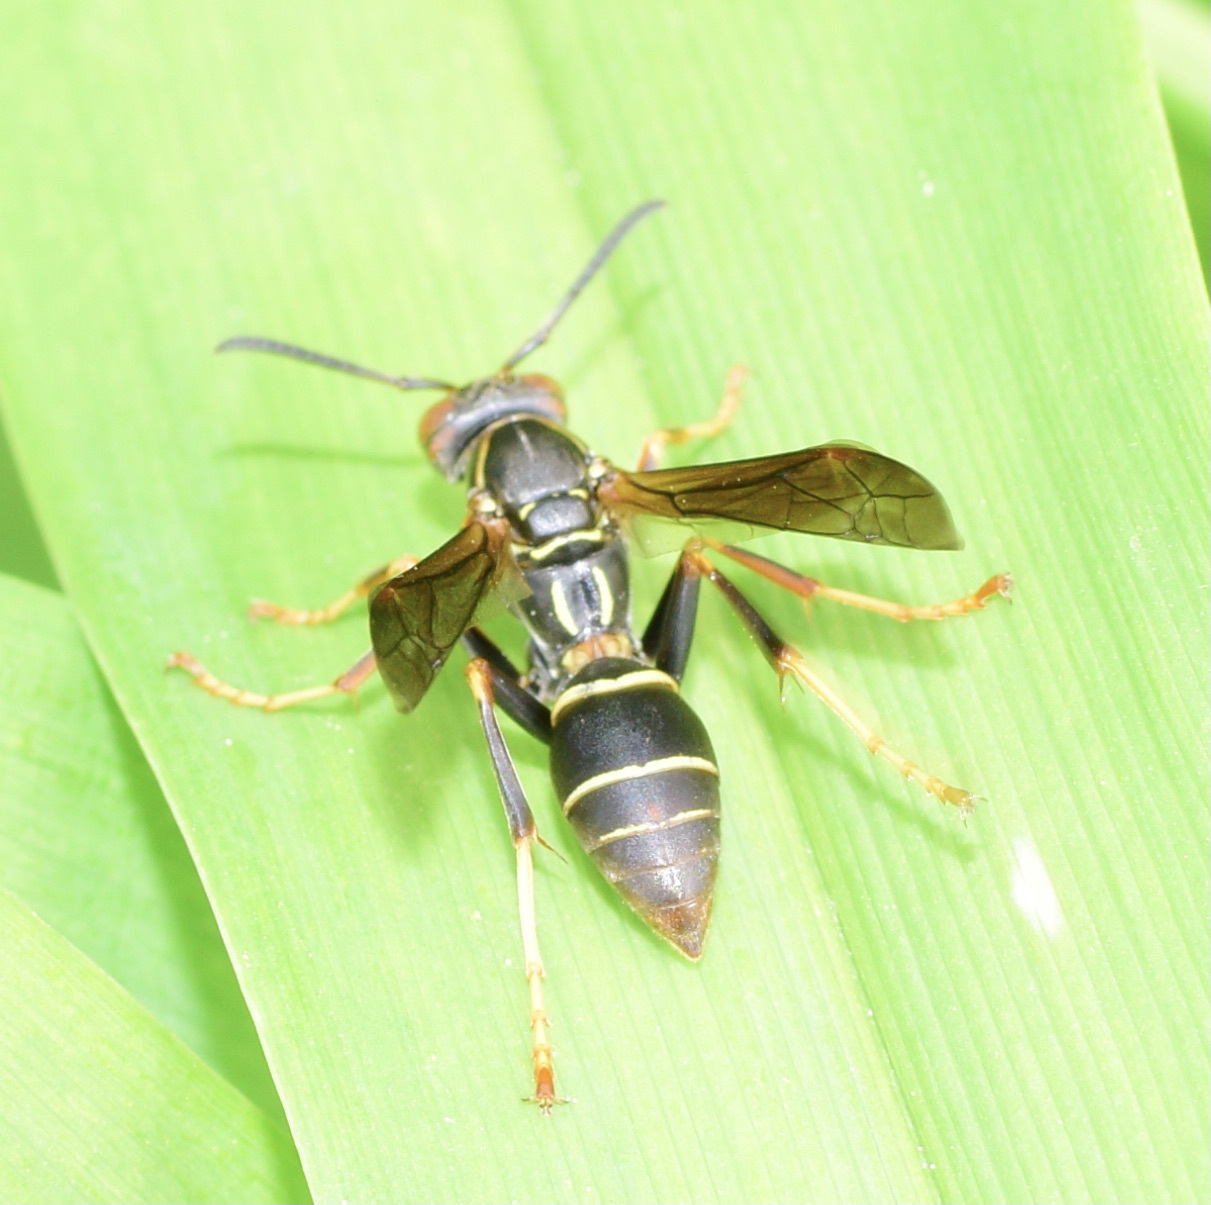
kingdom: Animalia
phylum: Arthropoda
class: Insecta
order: Hymenoptera
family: Eumenidae
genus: Polistes
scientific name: Polistes fuscatus
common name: Dark paper wasp
